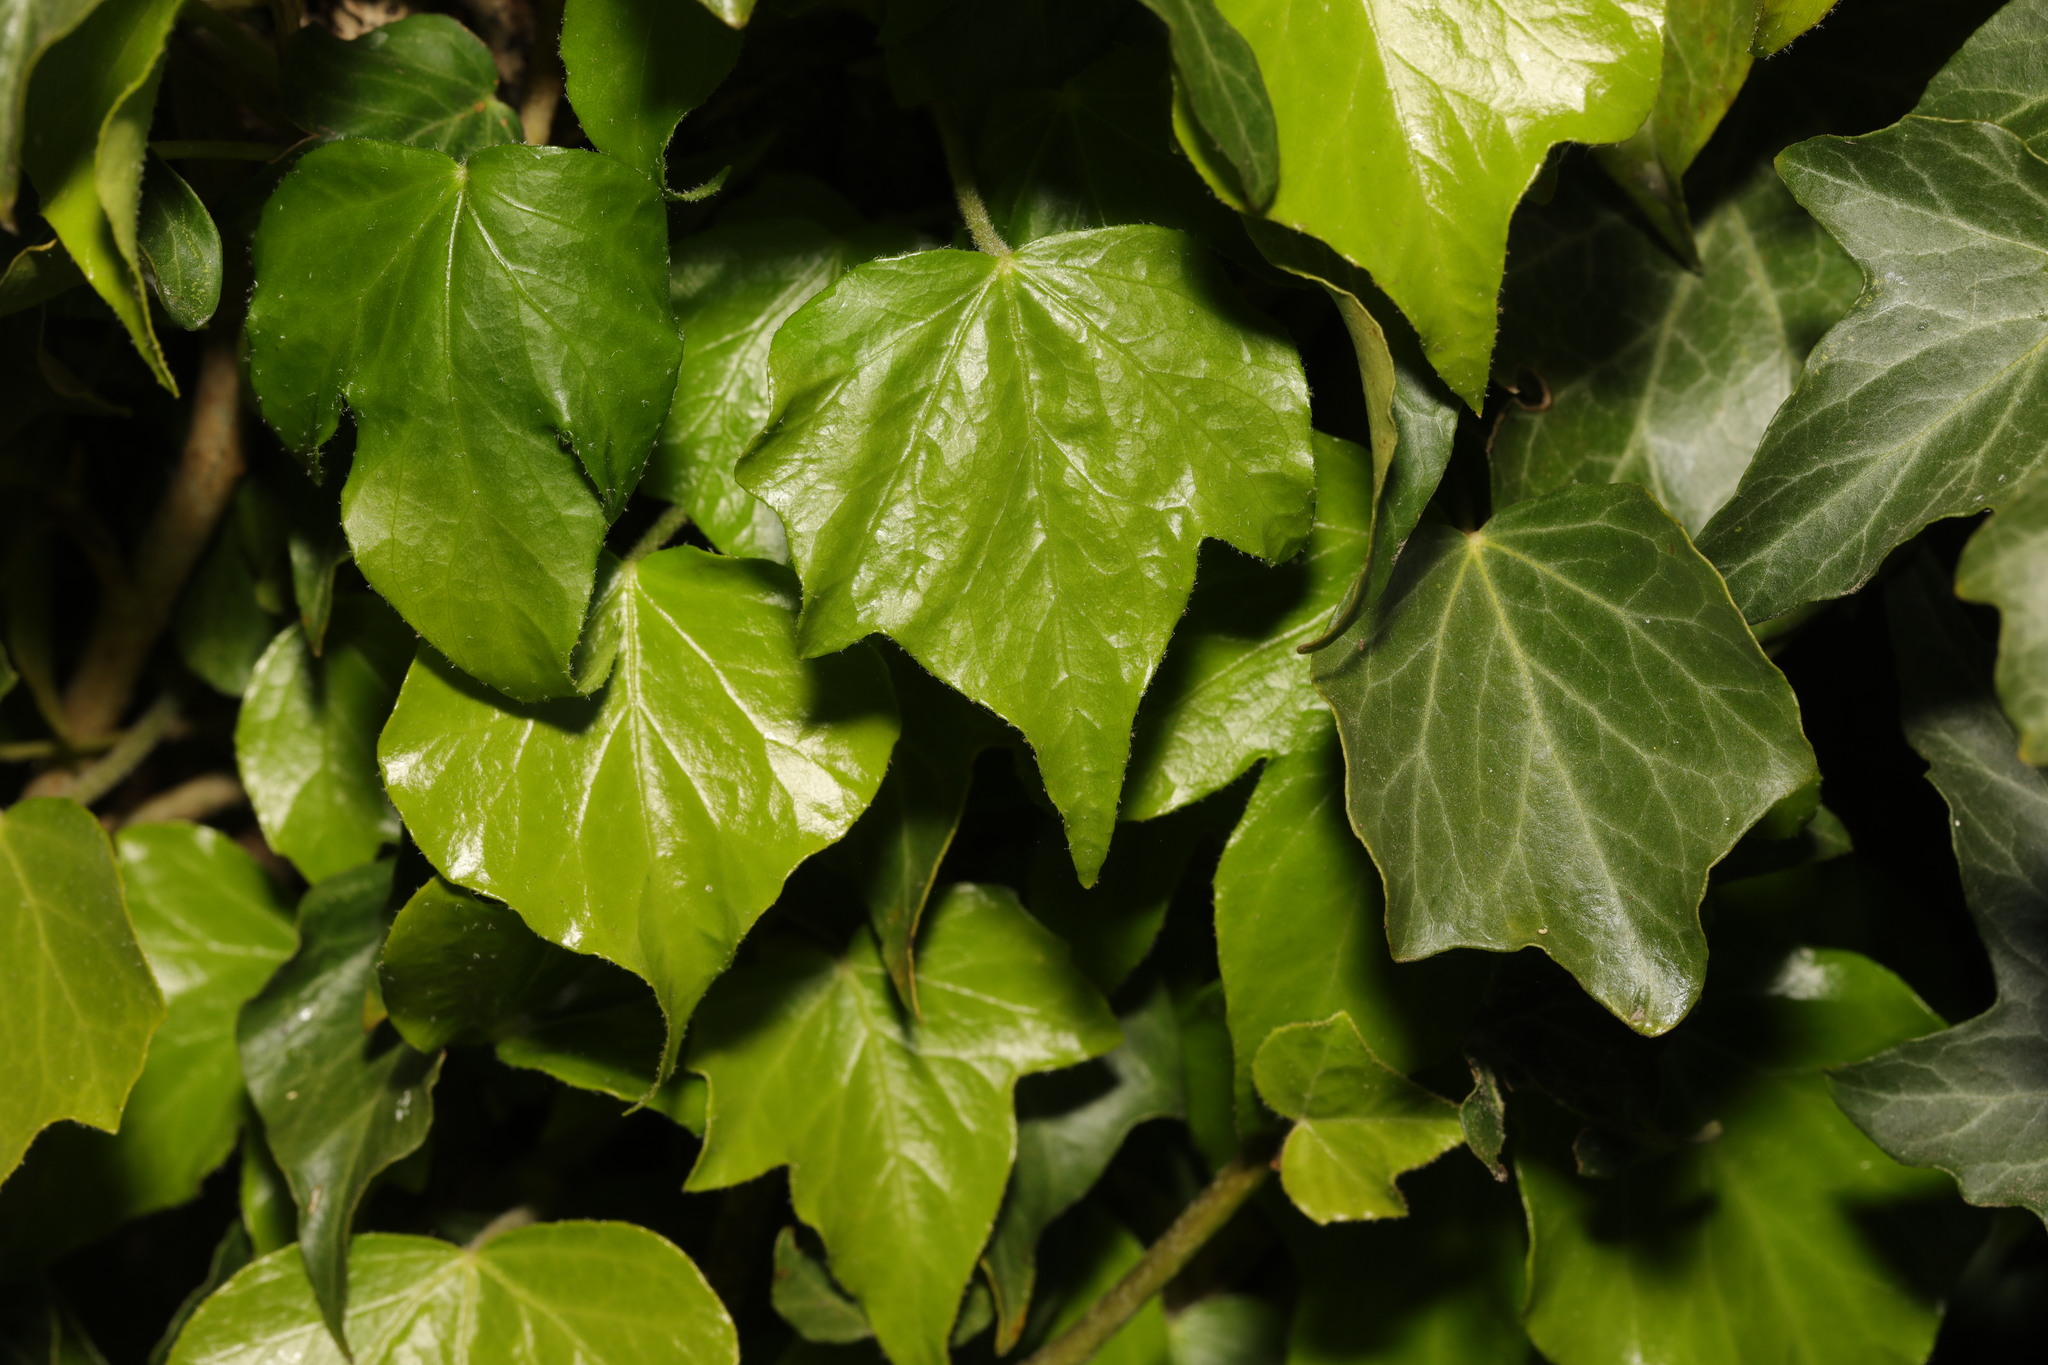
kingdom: Plantae
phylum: Tracheophyta
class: Magnoliopsida
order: Apiales
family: Araliaceae
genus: Hedera
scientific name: Hedera helix
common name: Ivy
